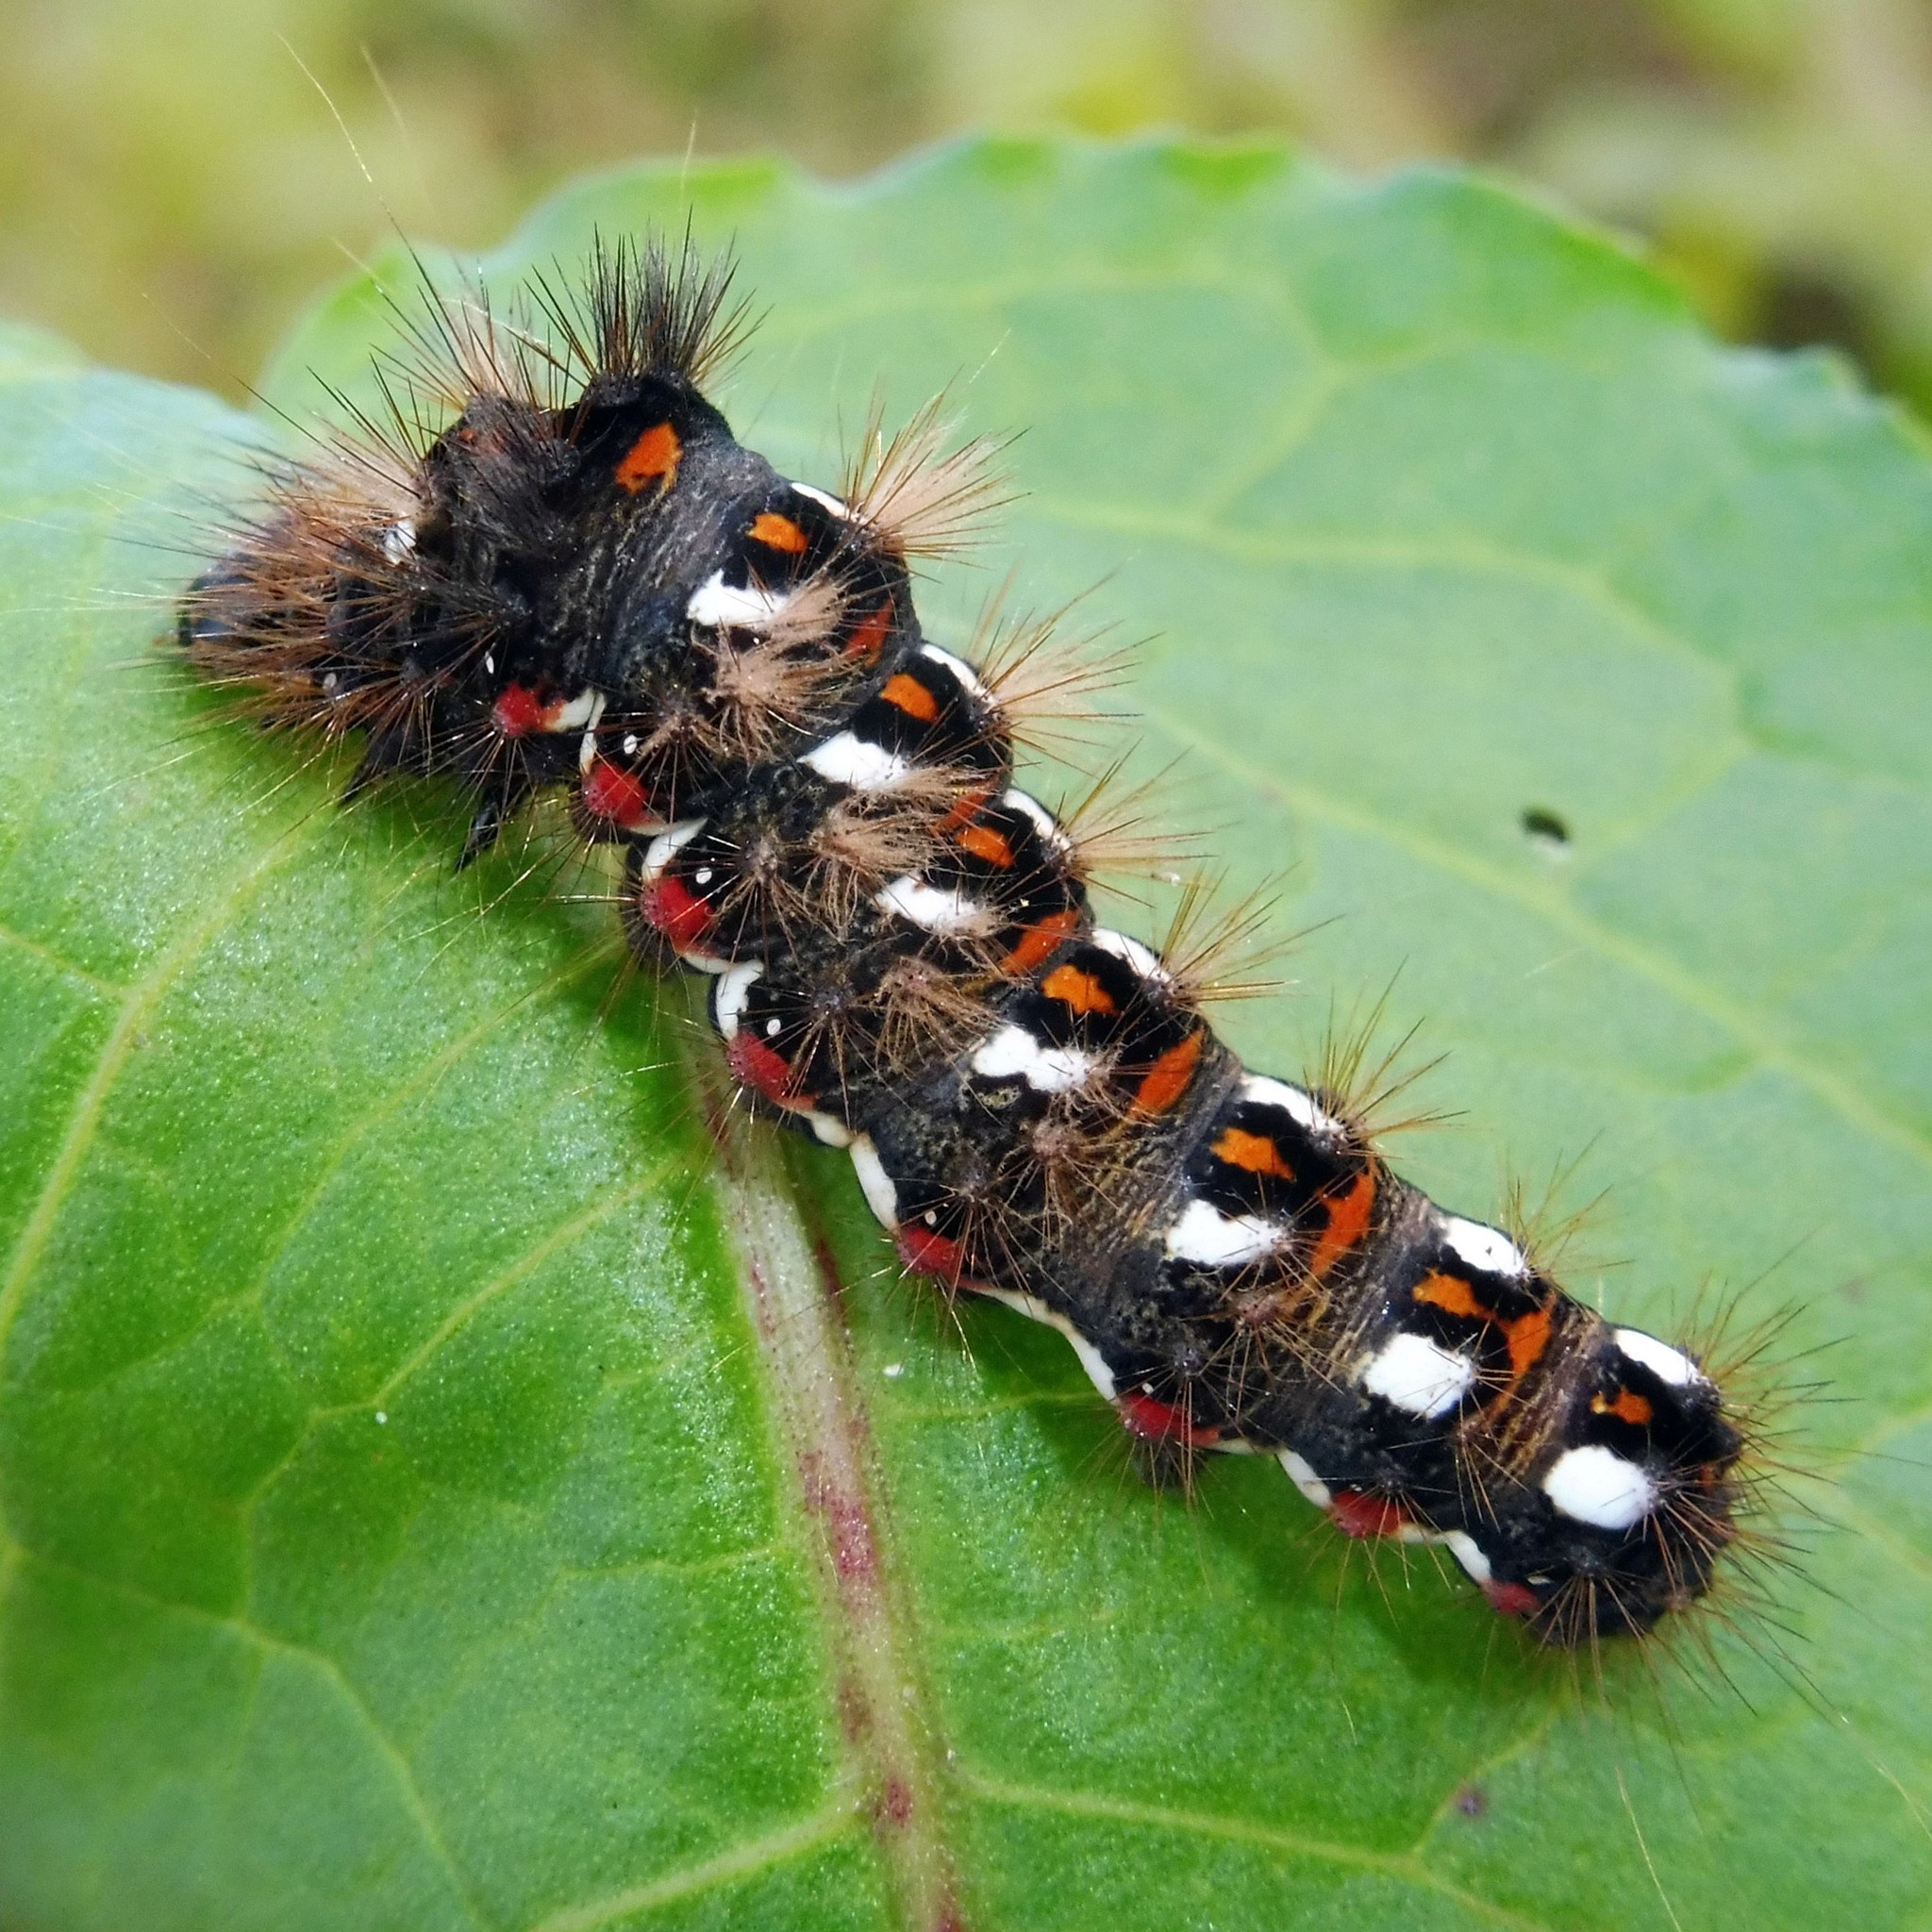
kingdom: Animalia
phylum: Arthropoda
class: Insecta
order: Lepidoptera
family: Noctuidae
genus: Acronicta
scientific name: Acronicta rumicis
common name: Knot grass
